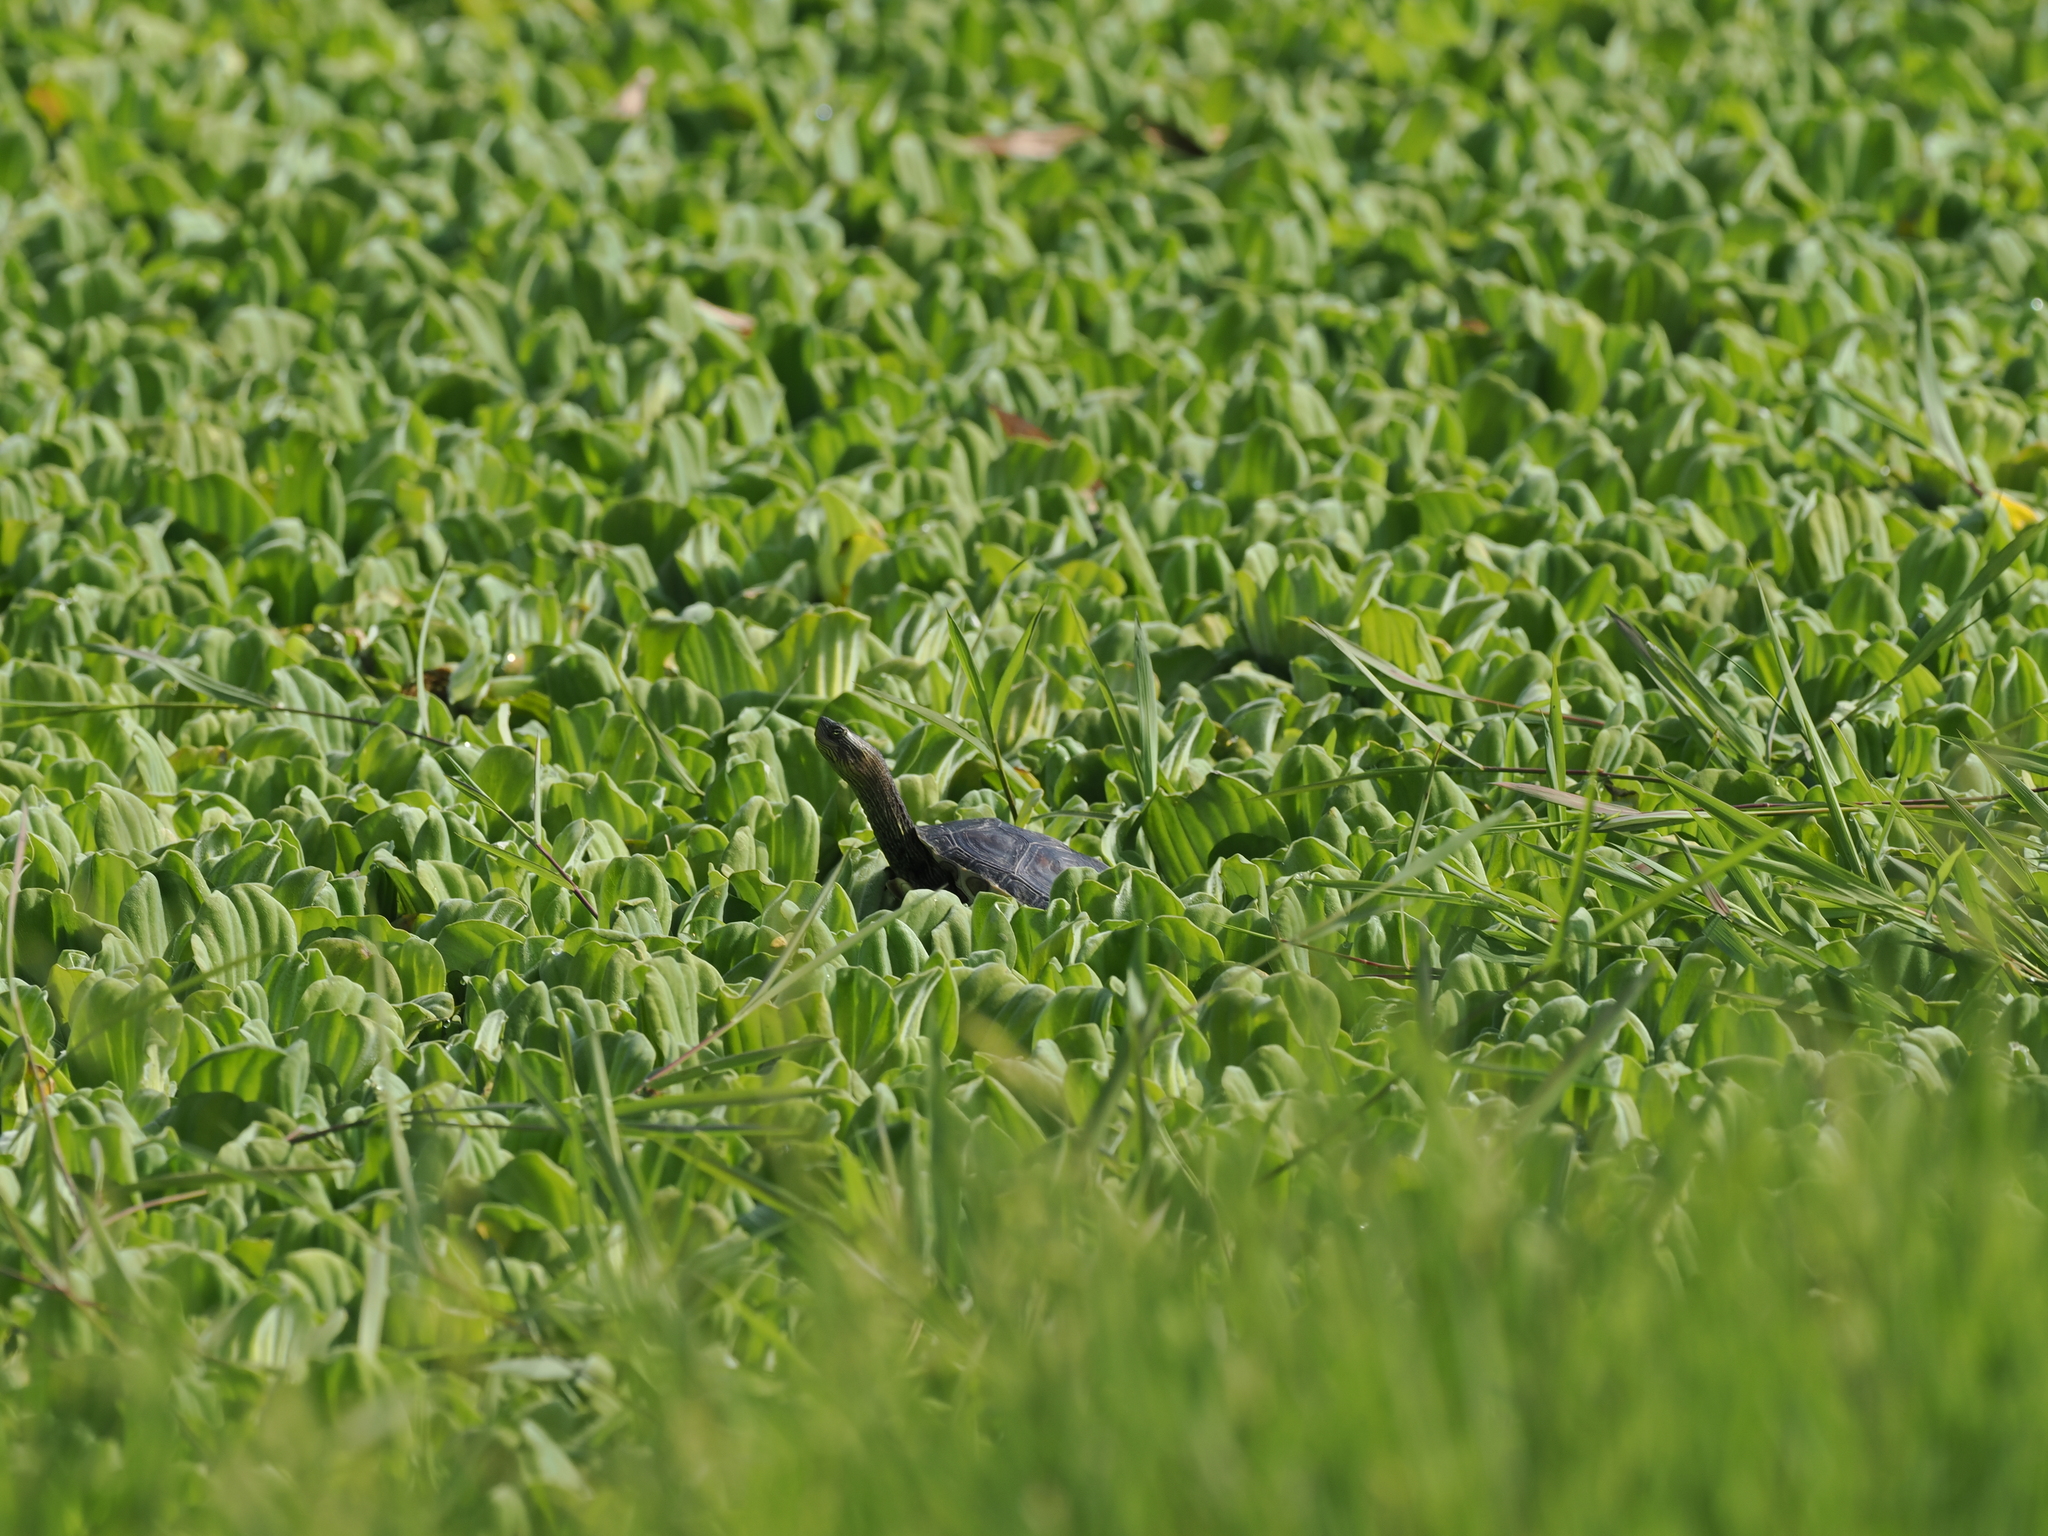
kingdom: Animalia
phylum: Chordata
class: Testudines
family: Geoemydidae
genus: Mauremys
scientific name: Mauremys sinensis
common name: Chinese stripe-necked turtle
